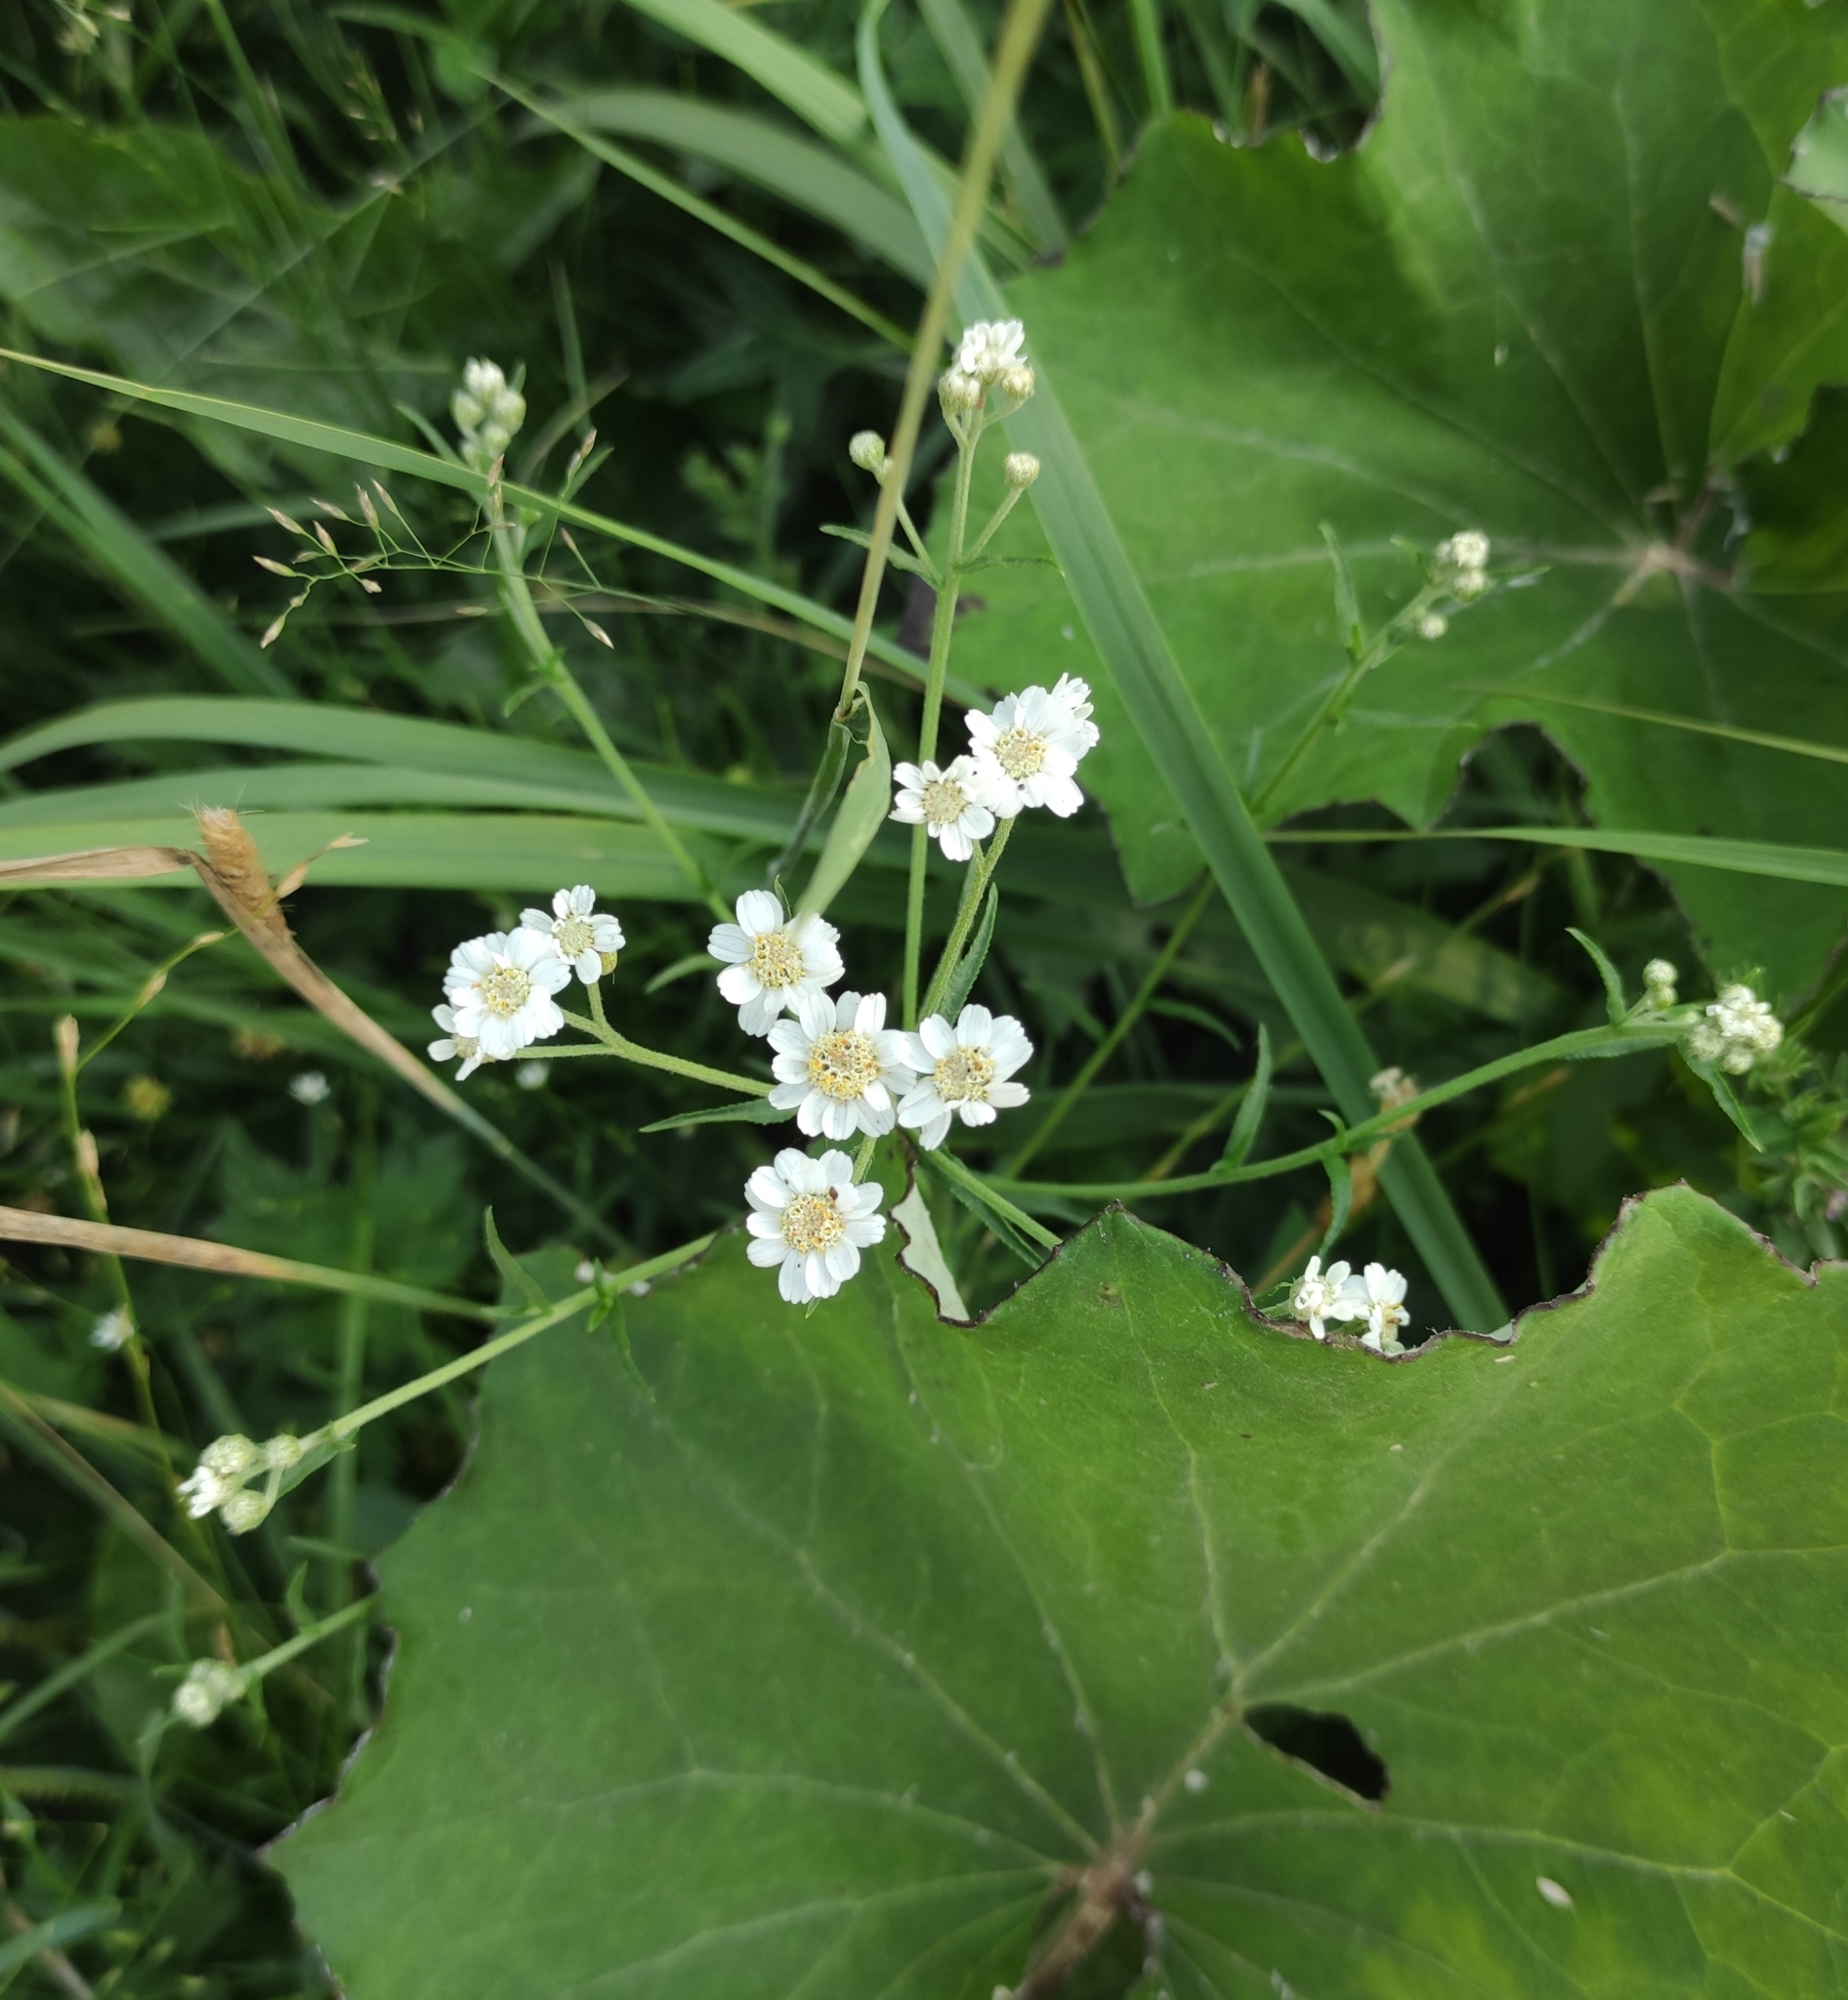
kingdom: Plantae
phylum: Tracheophyta
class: Magnoliopsida
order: Asterales
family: Asteraceae
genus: Achillea
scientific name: Achillea ptarmica
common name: Sneezeweed
